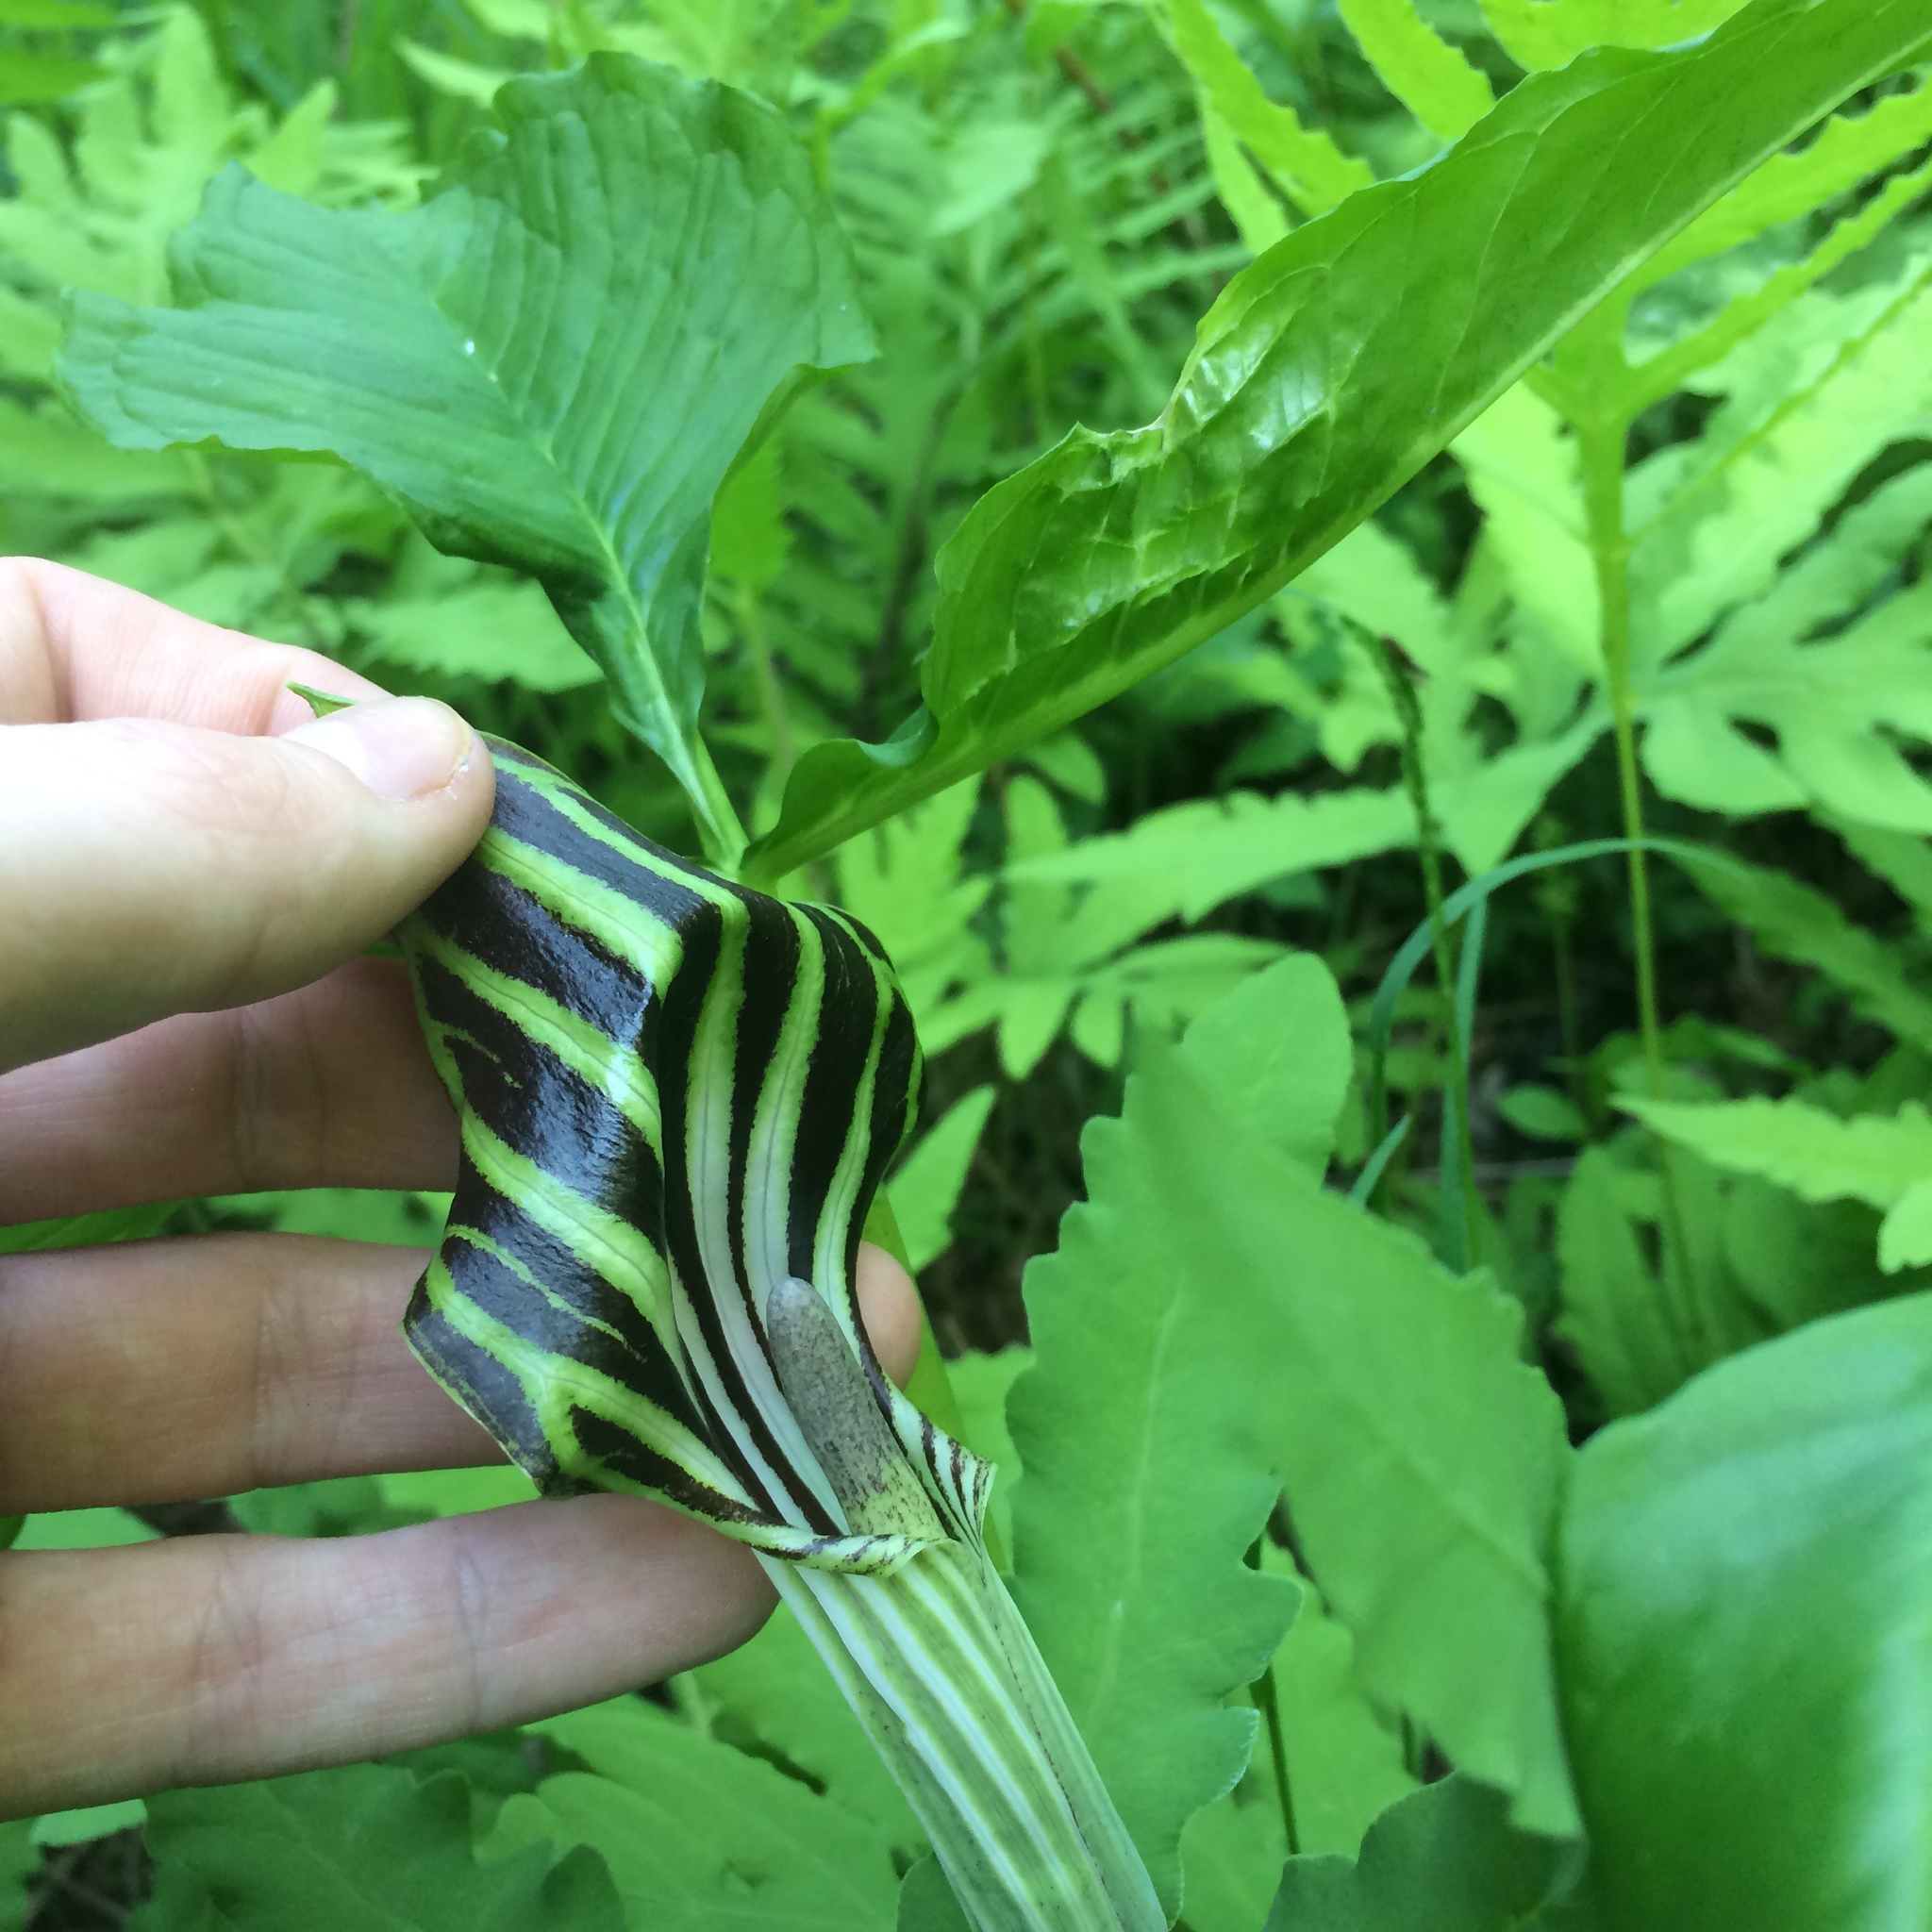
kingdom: Plantae
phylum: Tracheophyta
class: Liliopsida
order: Alismatales
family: Araceae
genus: Arisaema
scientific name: Arisaema stewardsonii
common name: Swamp jack-in-the-pulpit
